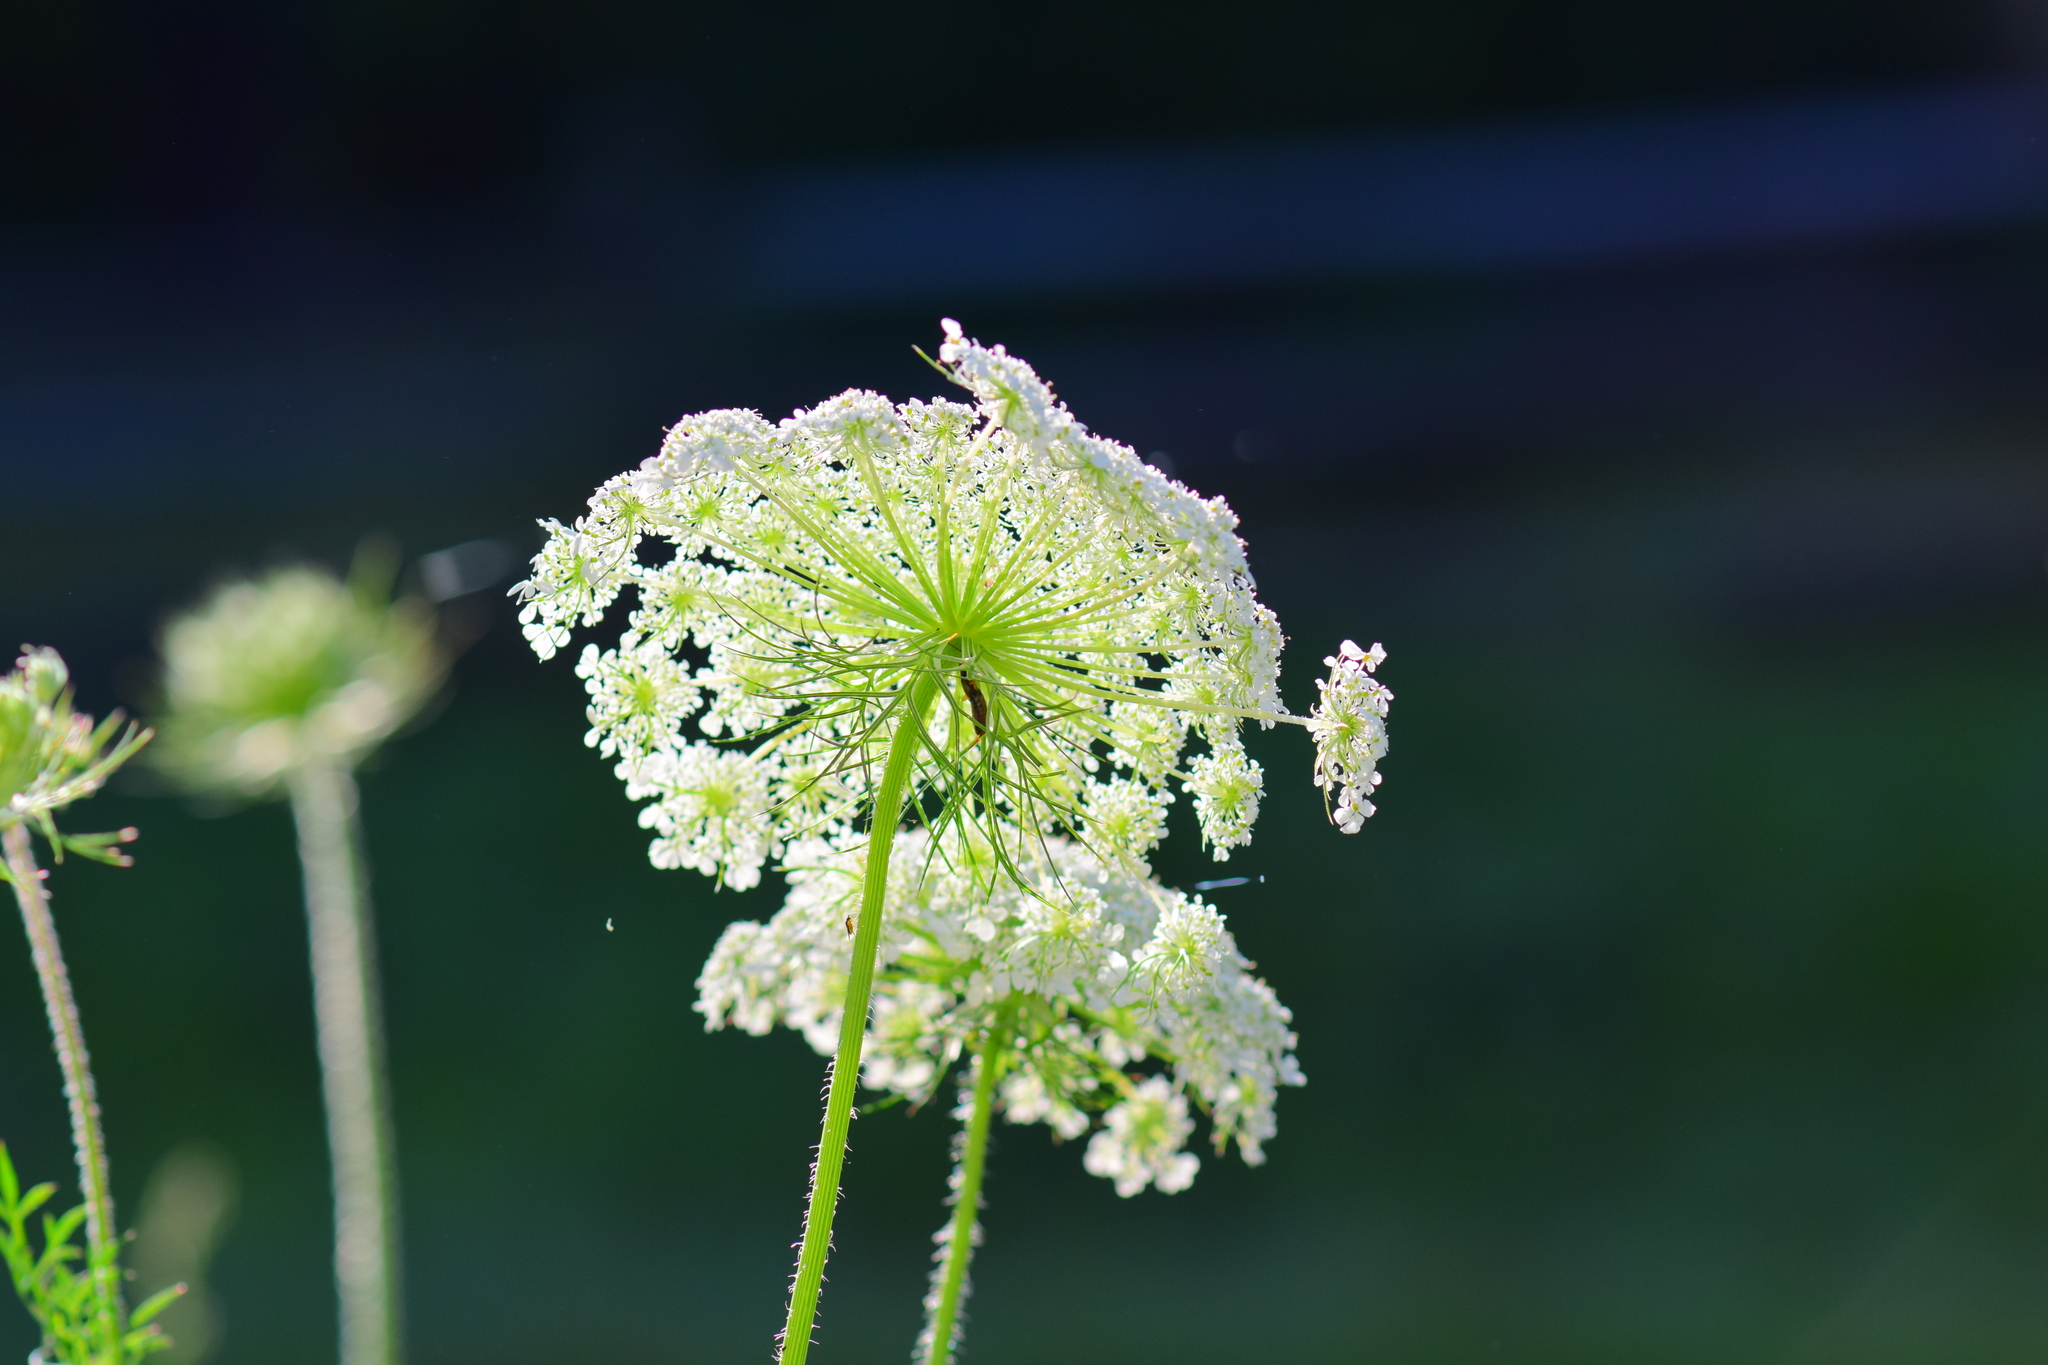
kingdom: Plantae
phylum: Tracheophyta
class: Magnoliopsida
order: Apiales
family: Apiaceae
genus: Daucus
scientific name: Daucus carota
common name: Wild carrot
